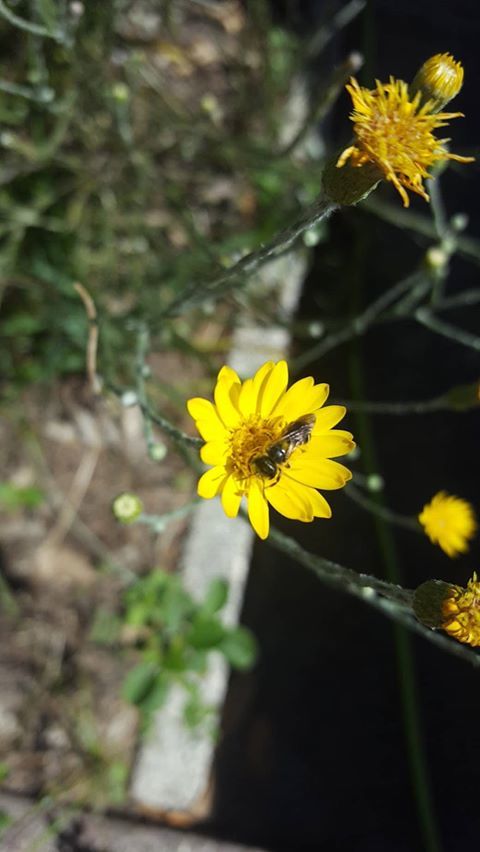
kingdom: Animalia
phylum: Arthropoda
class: Insecta
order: Hymenoptera
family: Halictidae
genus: Halictus
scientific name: Halictus poeyi
